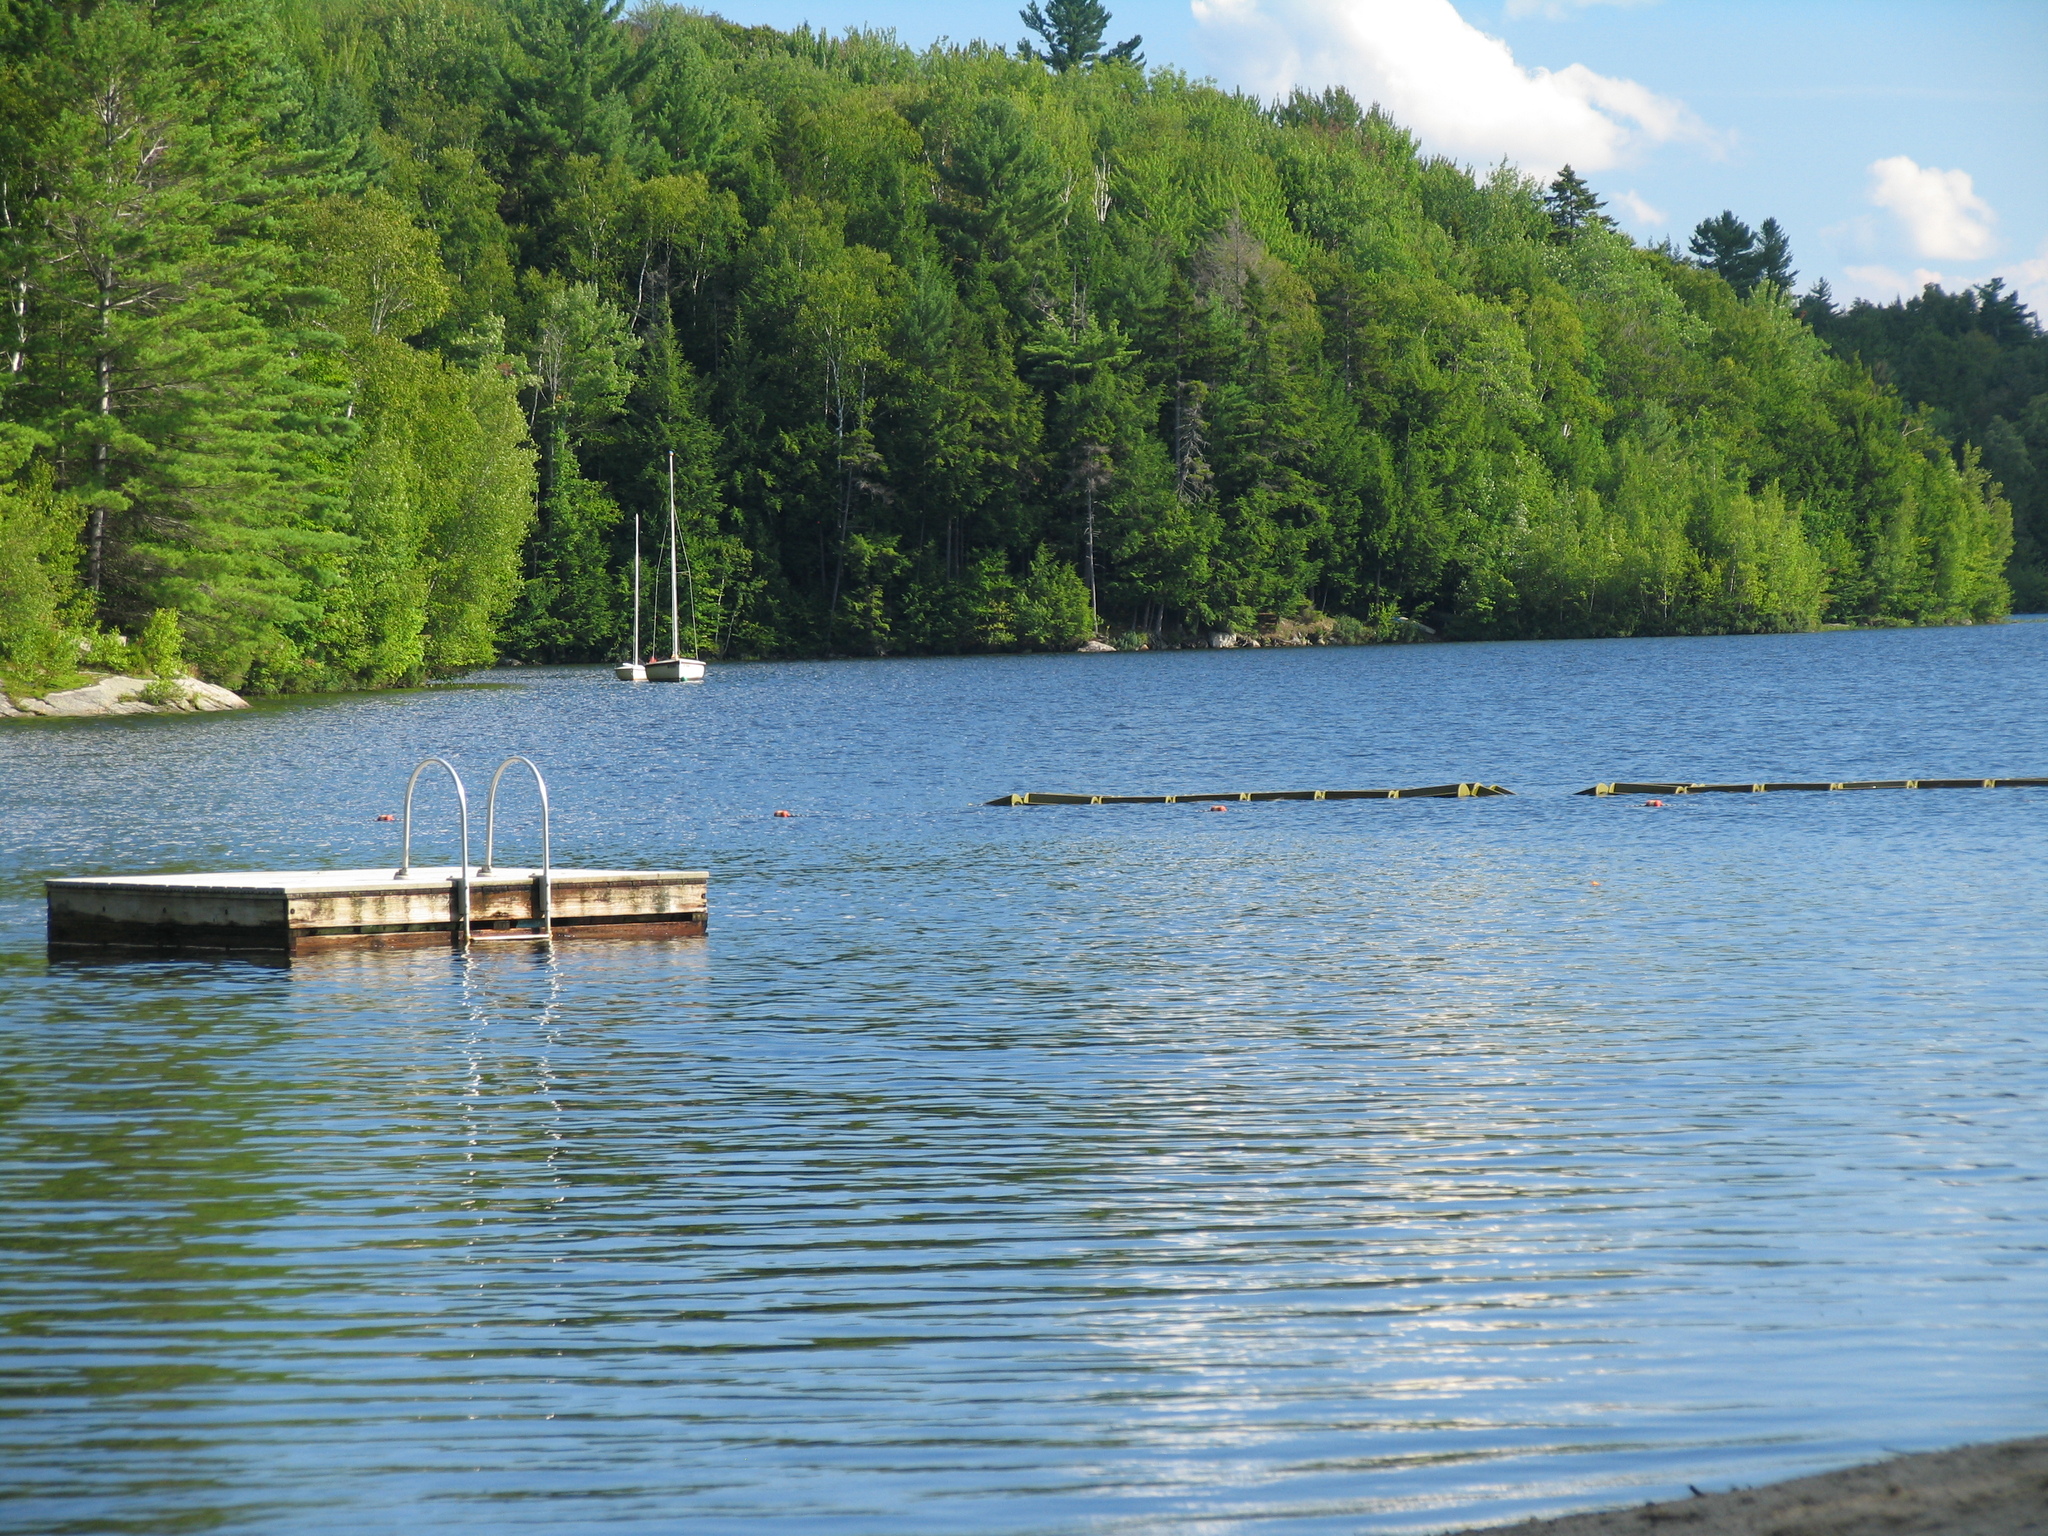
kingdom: Plantae
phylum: Tracheophyta
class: Pinopsida
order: Pinales
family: Pinaceae
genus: Pinus
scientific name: Pinus strobus
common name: Weymouth pine
